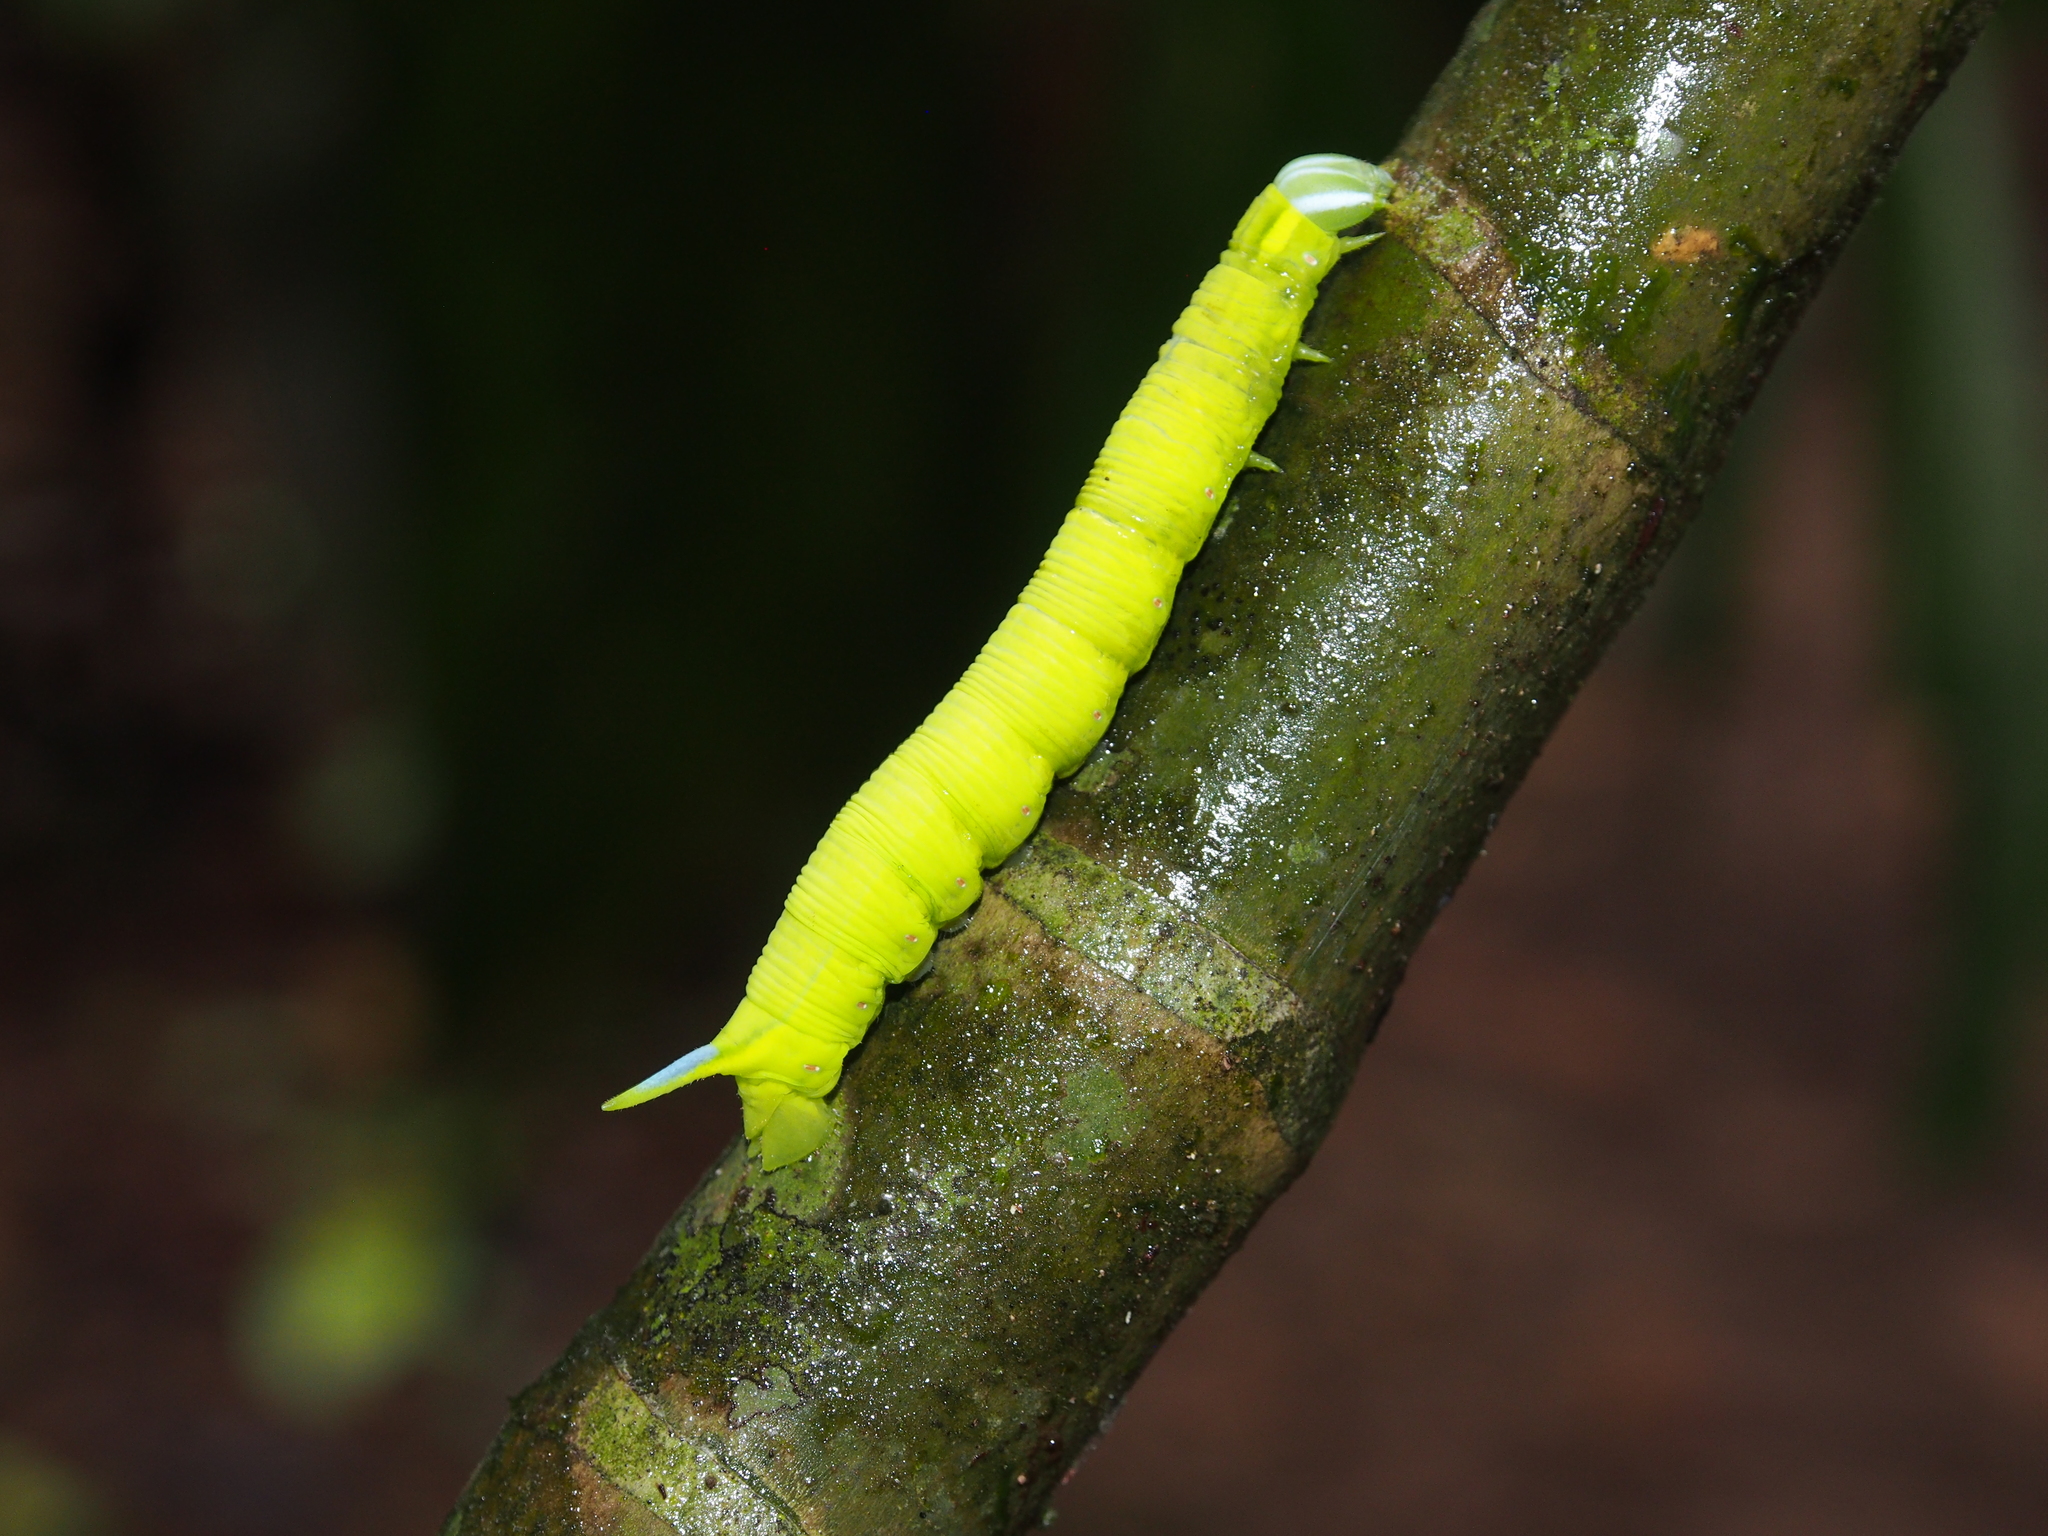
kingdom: Animalia
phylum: Arthropoda
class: Insecta
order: Lepidoptera
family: Sphingidae
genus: Callionima
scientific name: Callionima falcifera
